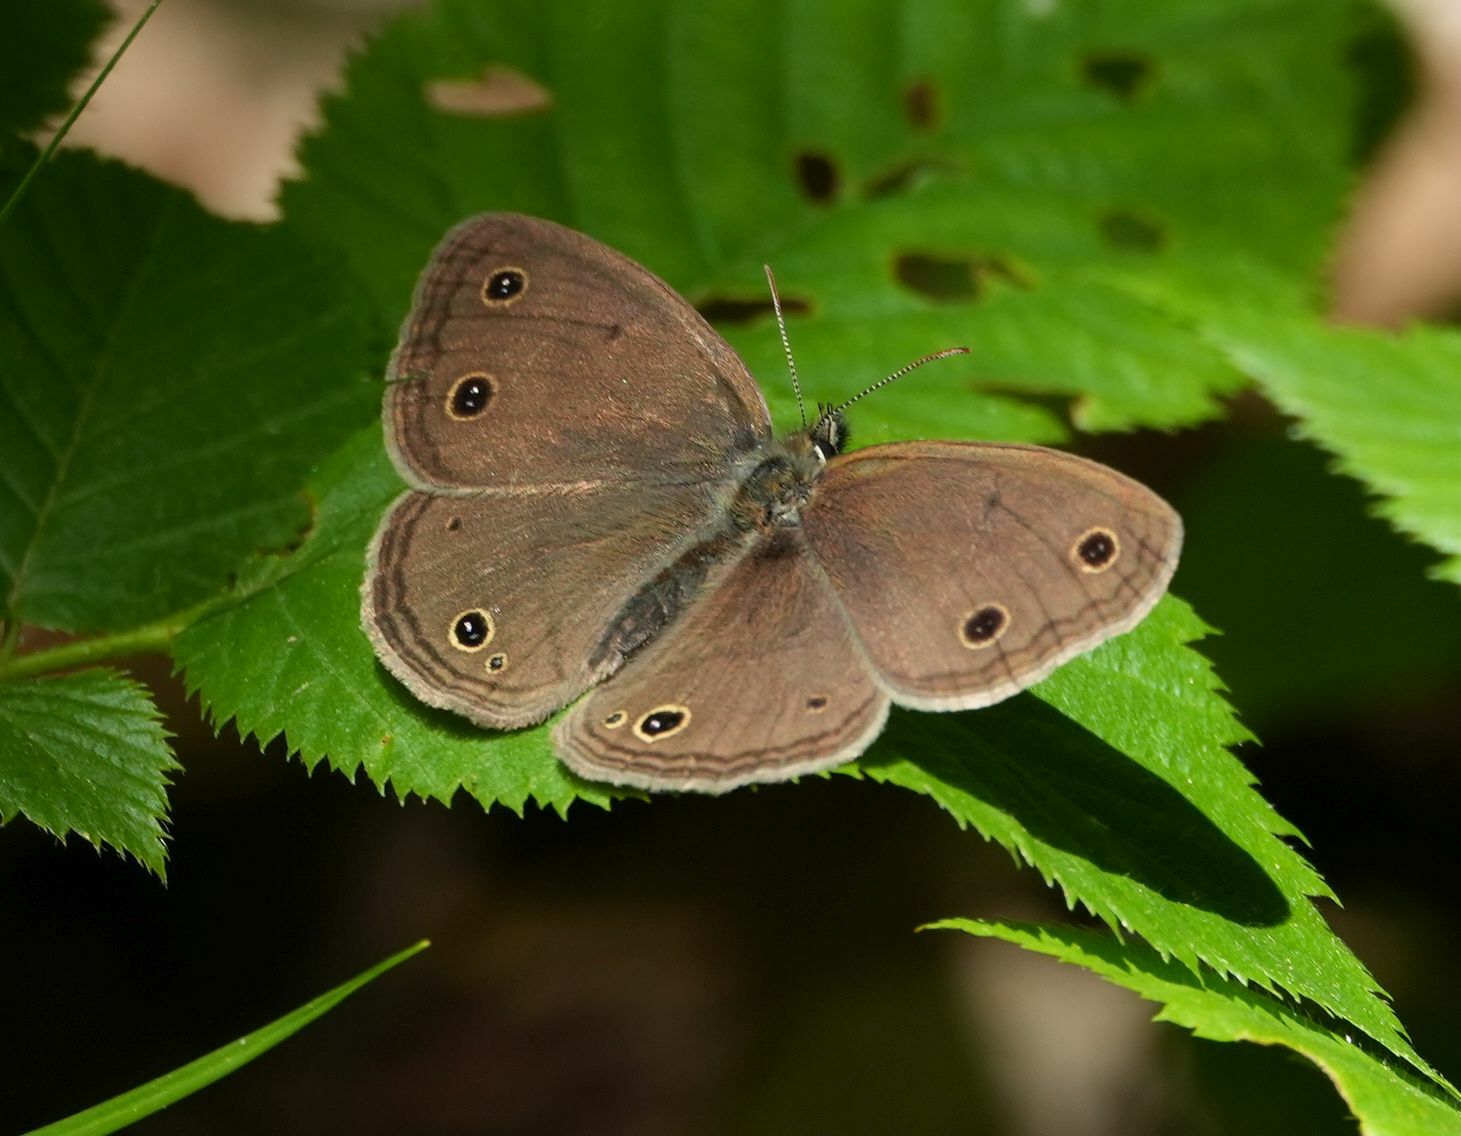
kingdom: Animalia
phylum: Arthropoda
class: Insecta
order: Lepidoptera
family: Nymphalidae
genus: Euptychia
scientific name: Euptychia cymela
